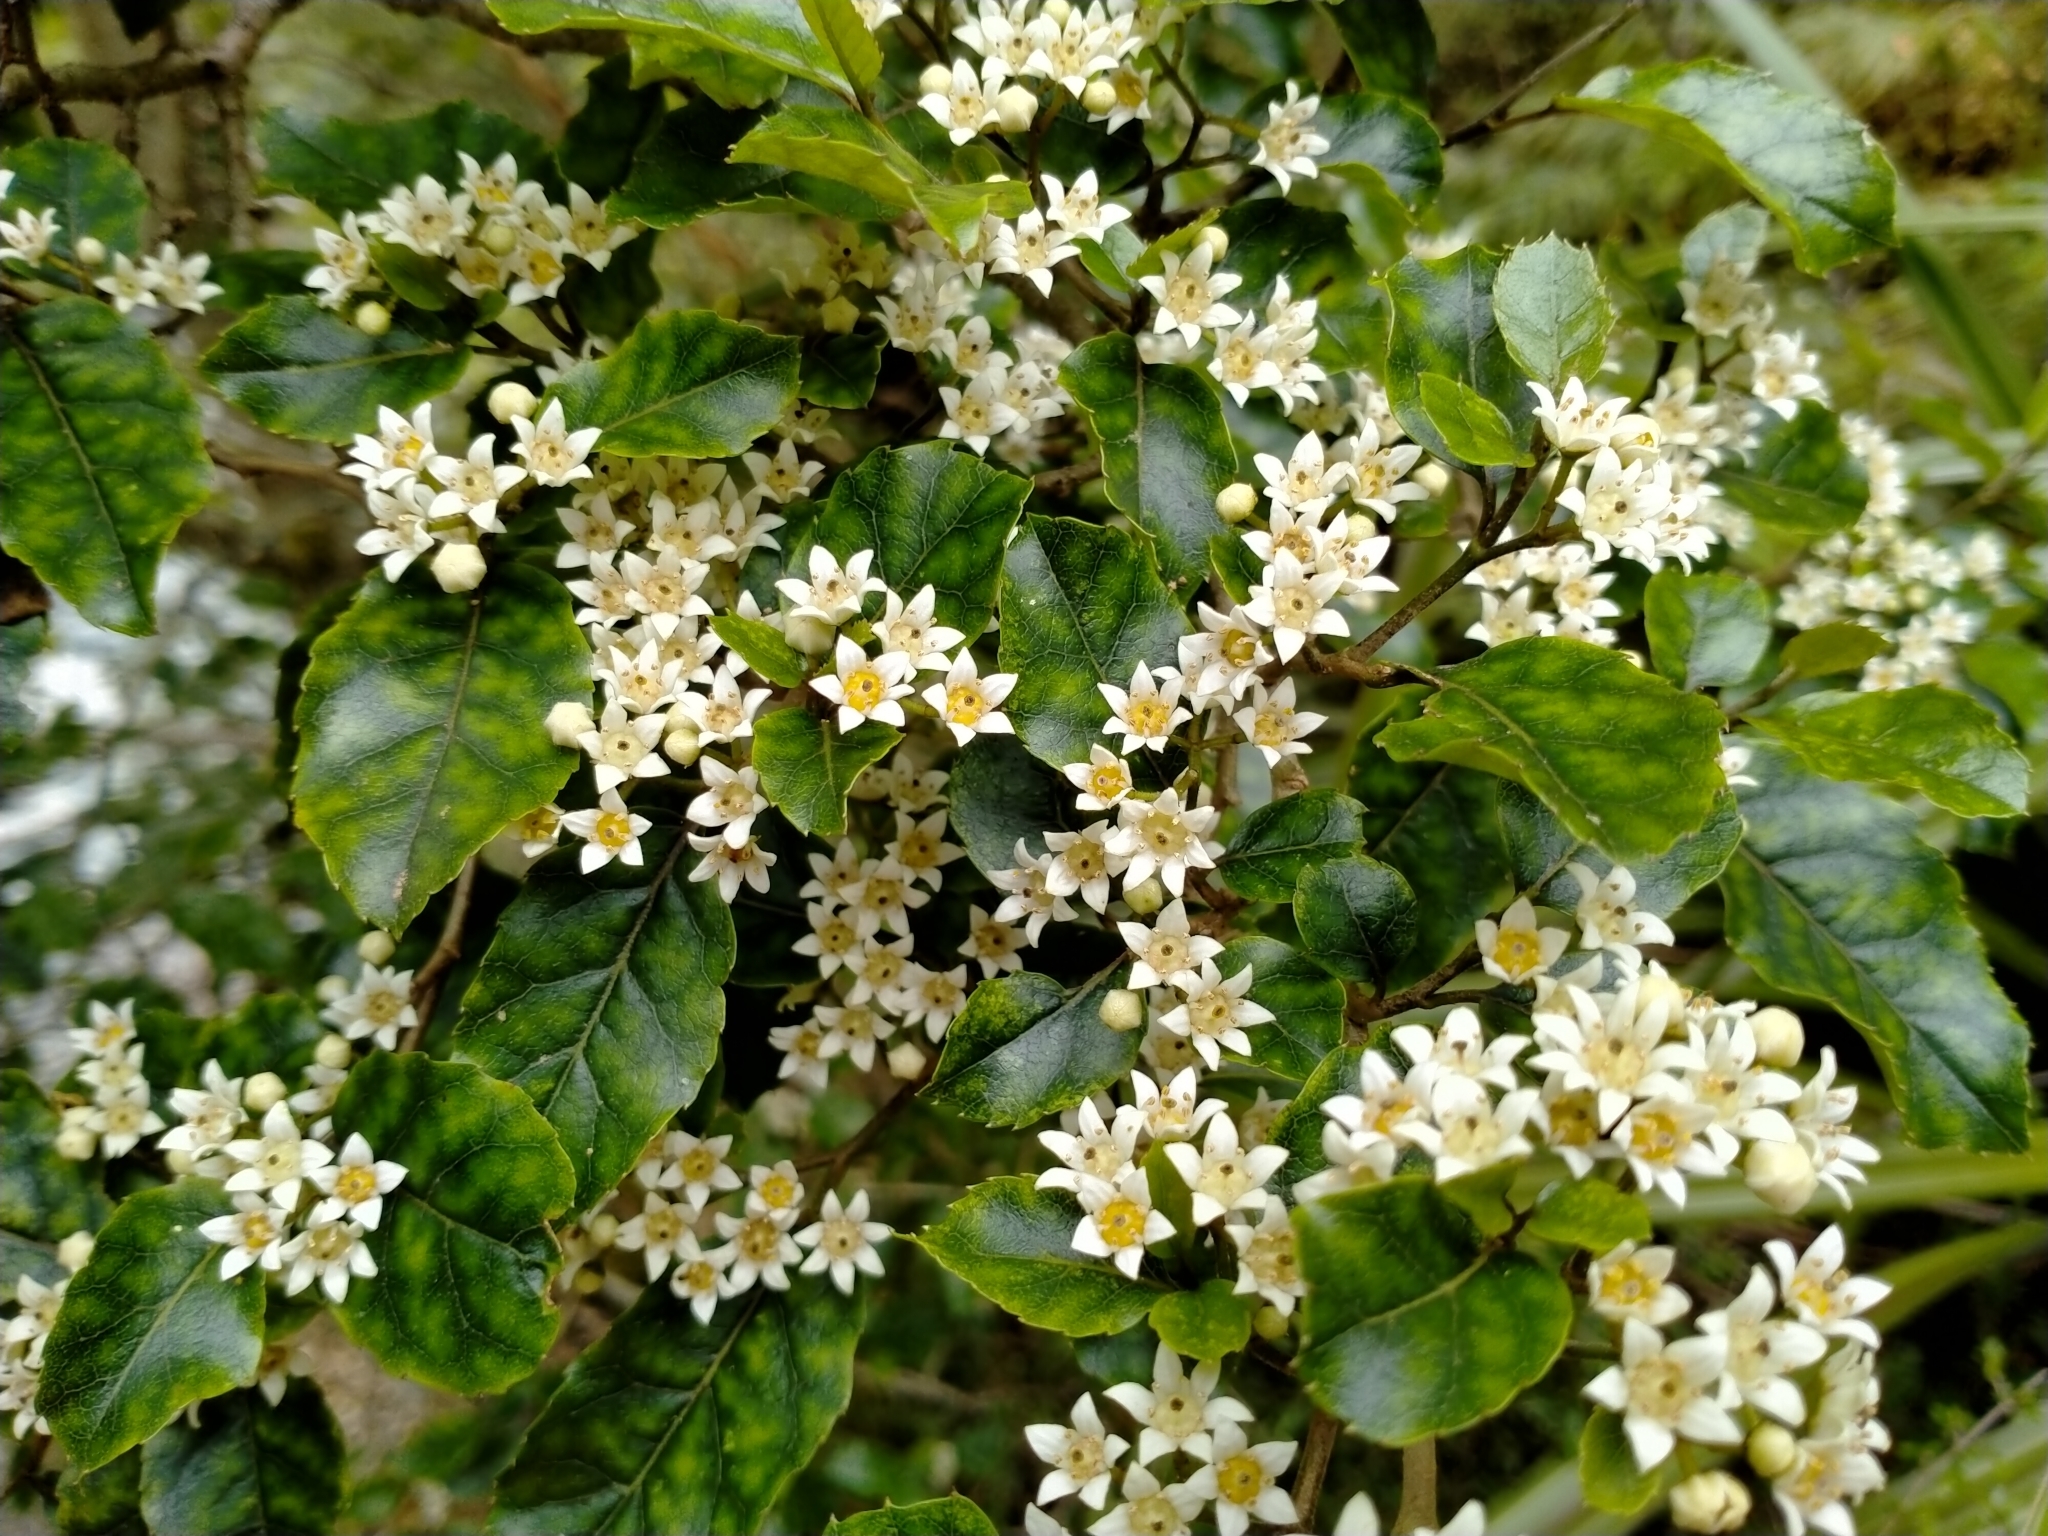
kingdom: Plantae
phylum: Tracheophyta
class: Magnoliopsida
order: Asterales
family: Rousseaceae
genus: Carpodetus
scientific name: Carpodetus serratus
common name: White mapau
